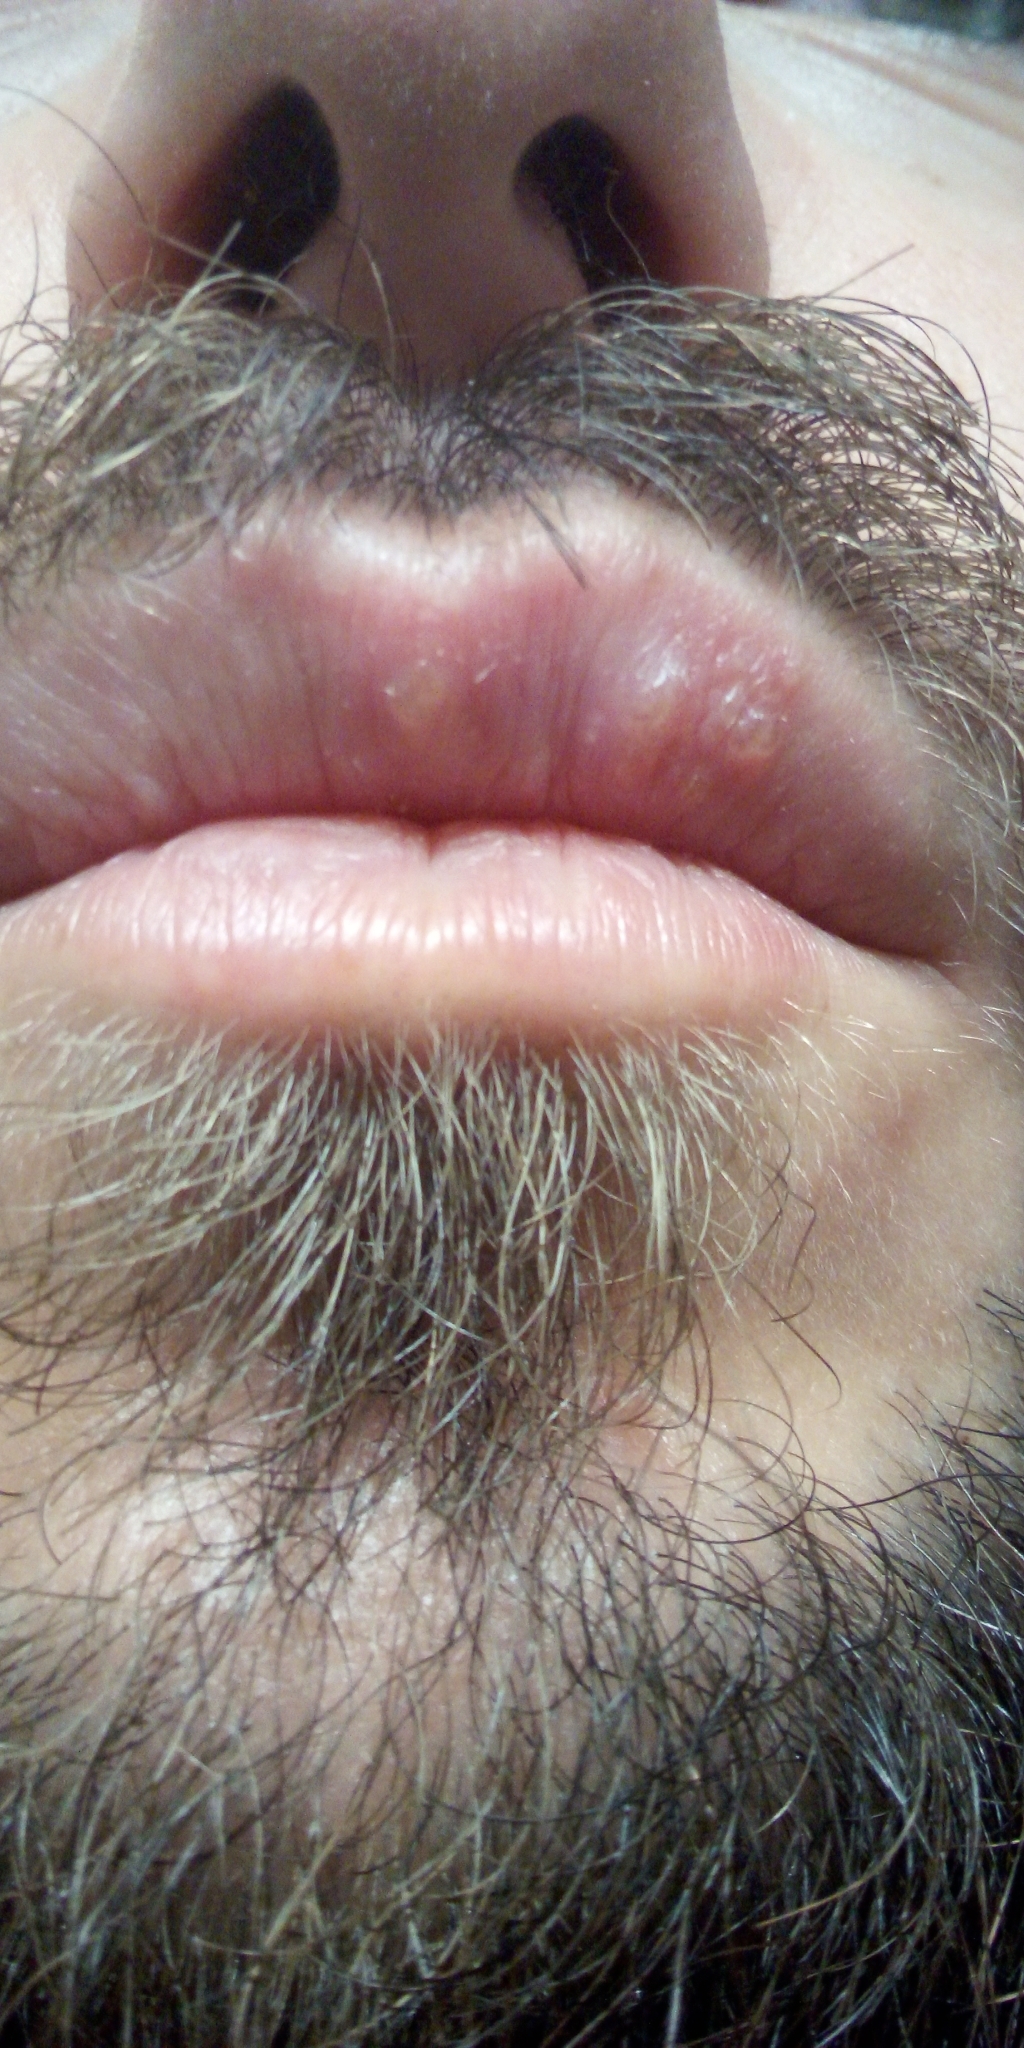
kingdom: Viruses
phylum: Peploviricota
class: Herviviricetes
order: Herpesvirales
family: Herpesviridae
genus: Simplexvirus
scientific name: Simplexvirus
